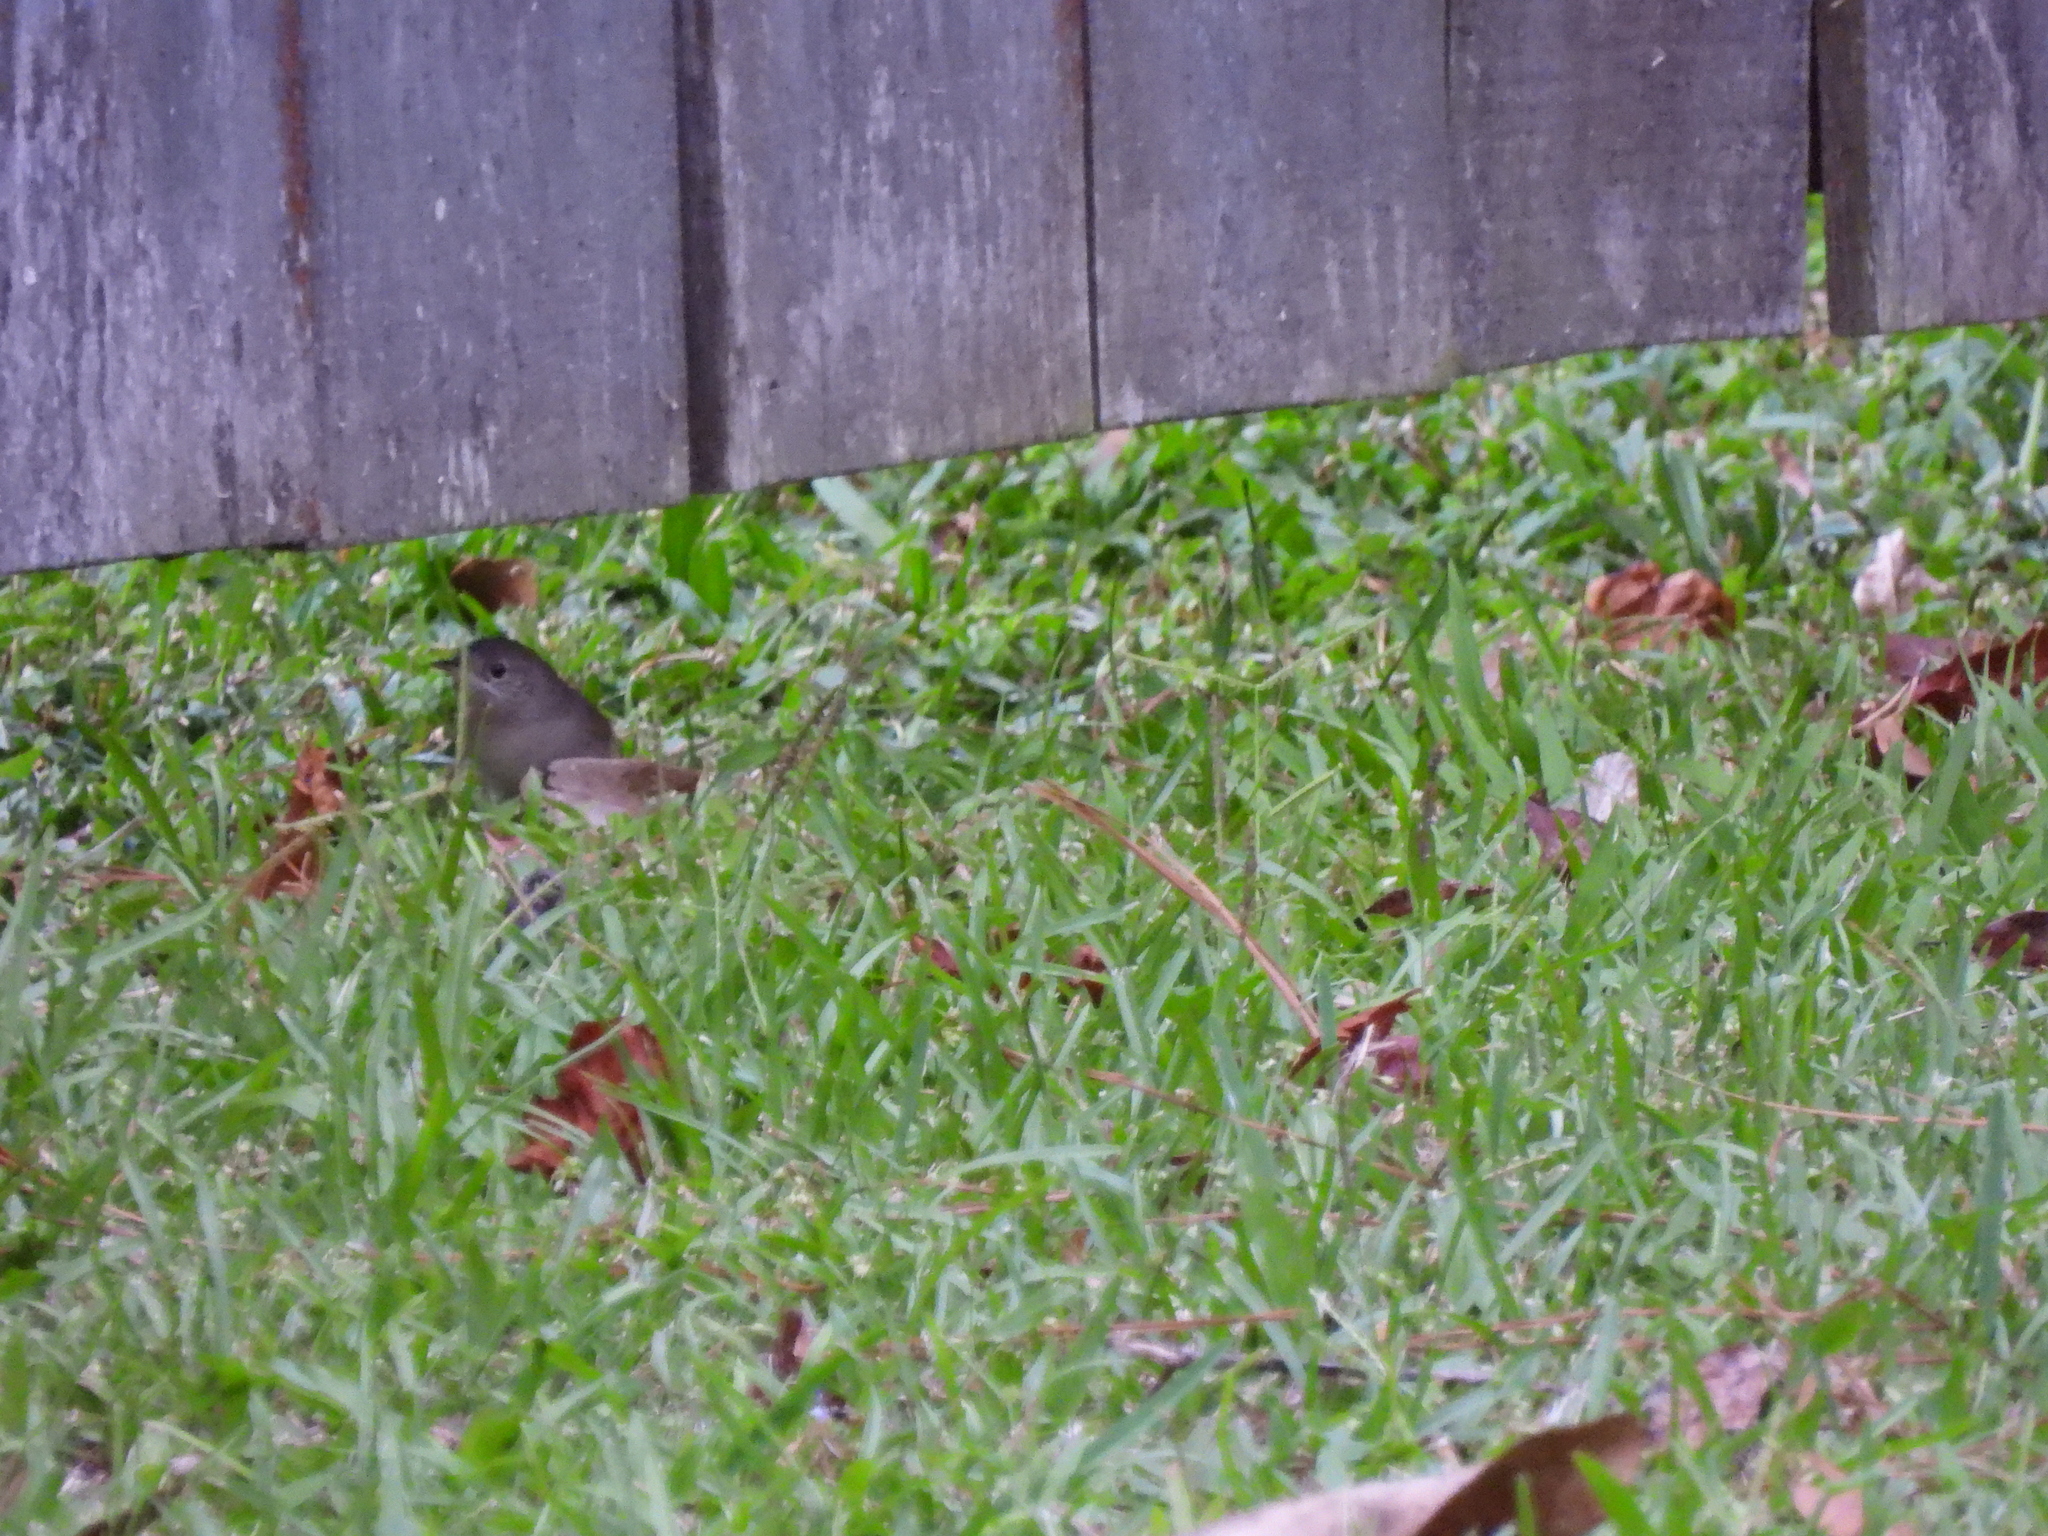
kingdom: Animalia
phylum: Chordata
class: Aves
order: Passeriformes
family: Troglodytidae
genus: Troglodytes
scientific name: Troglodytes aedon
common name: House wren
